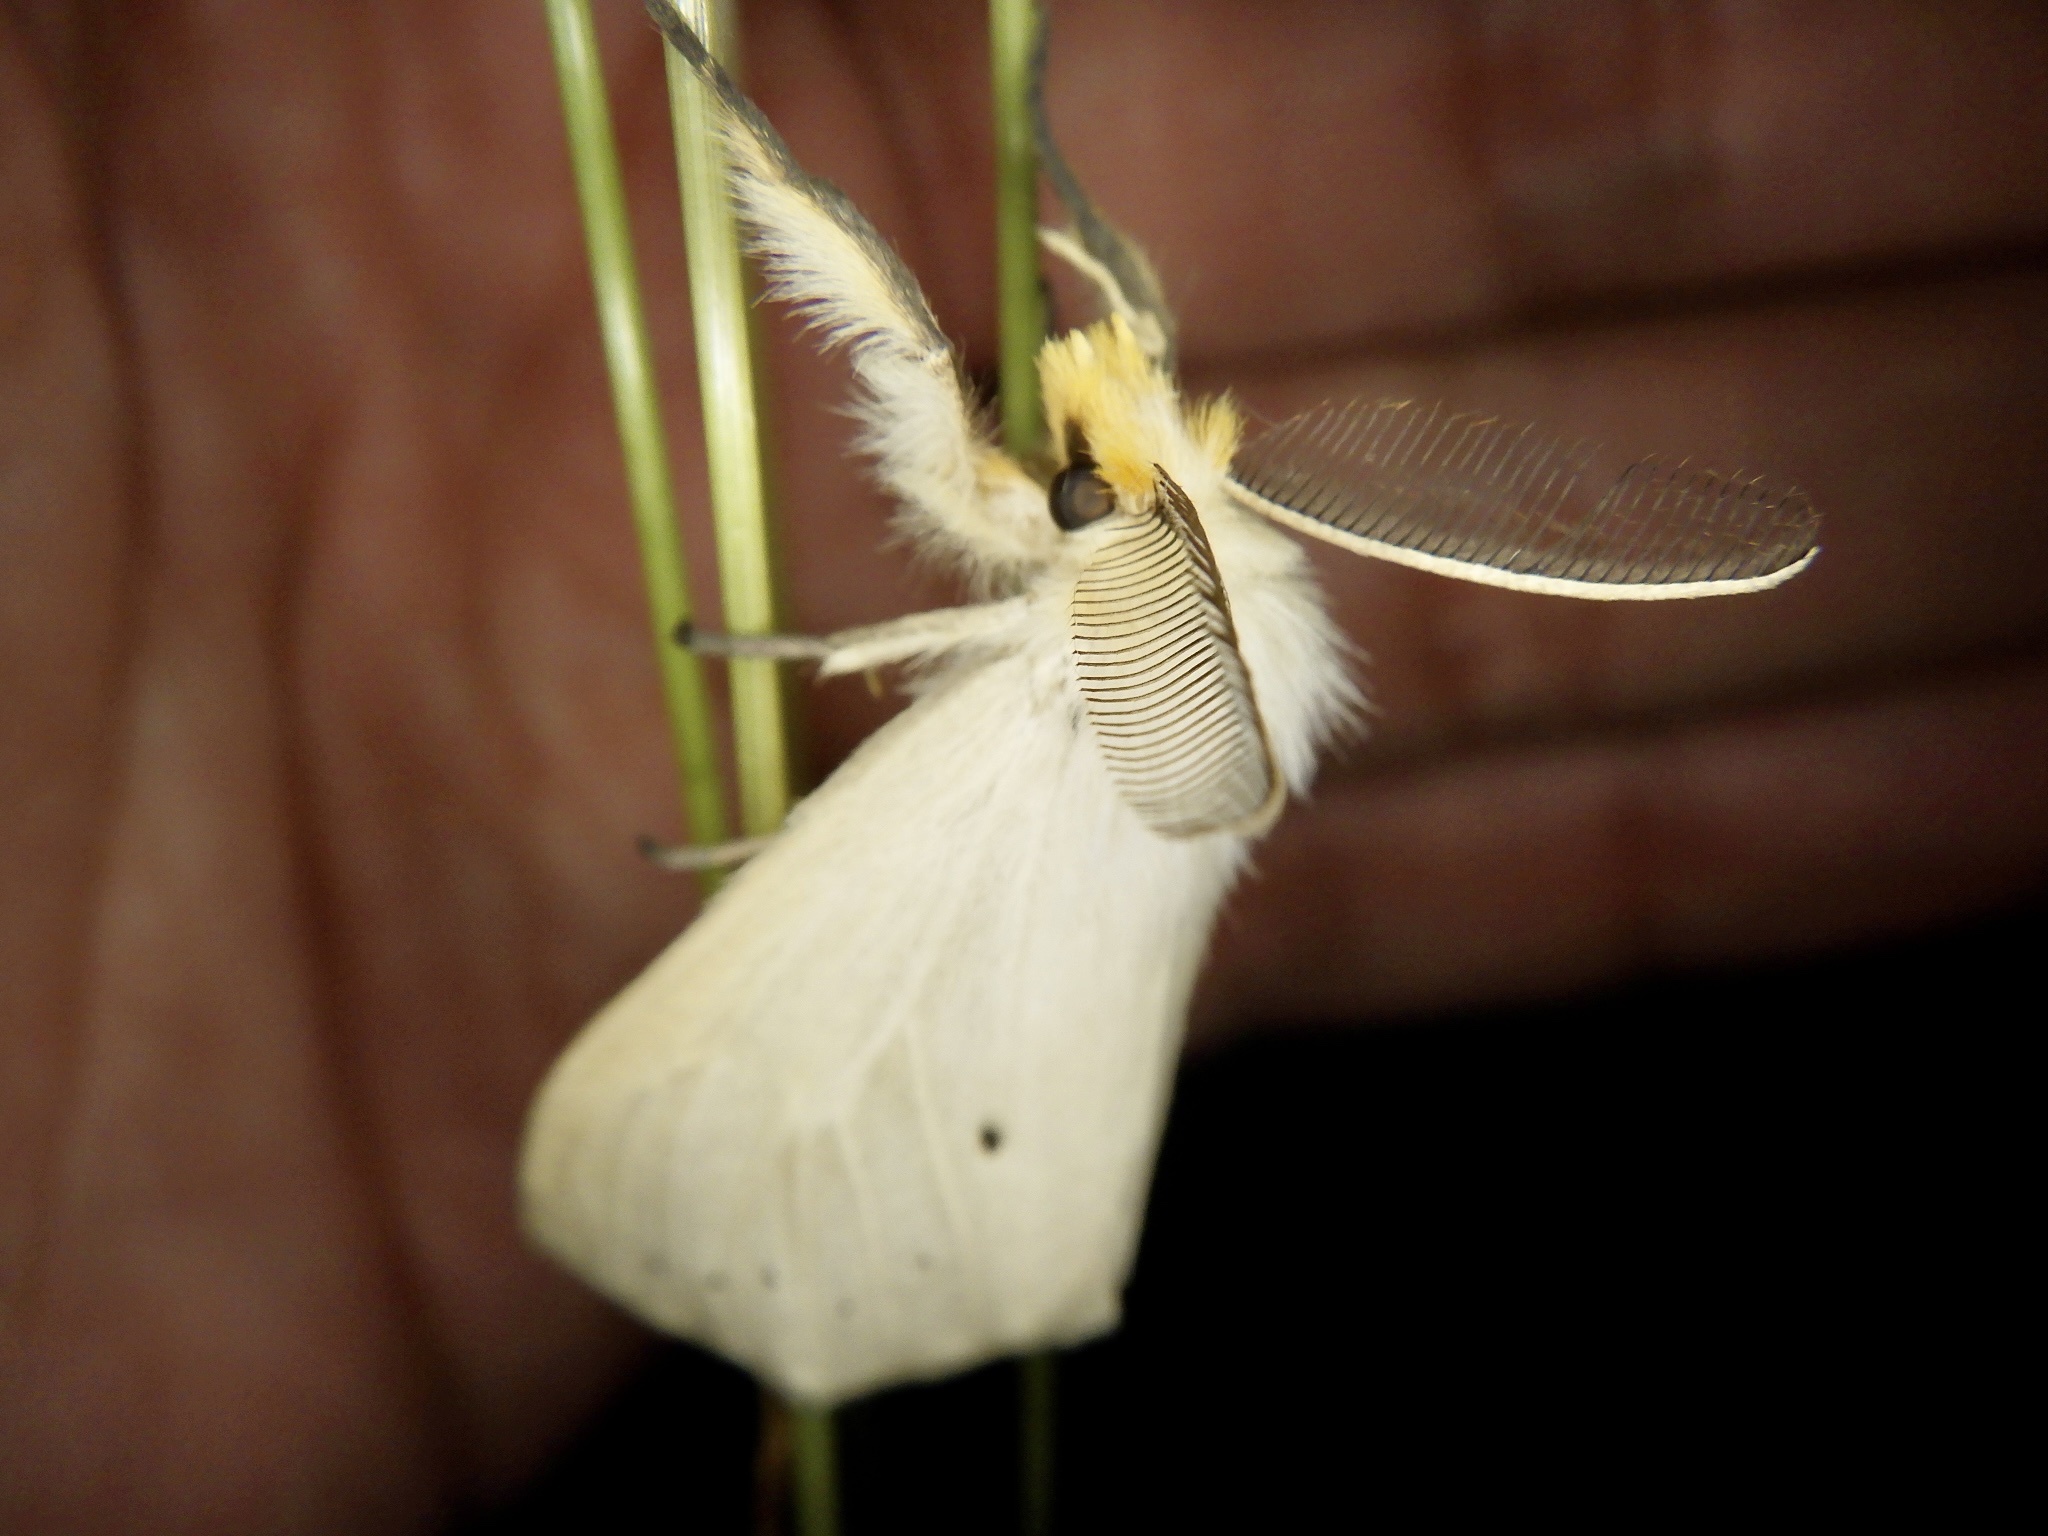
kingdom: Animalia
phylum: Arthropoda
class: Insecta
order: Lepidoptera
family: Erebidae
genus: Laelia
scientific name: Laelia gigantea
